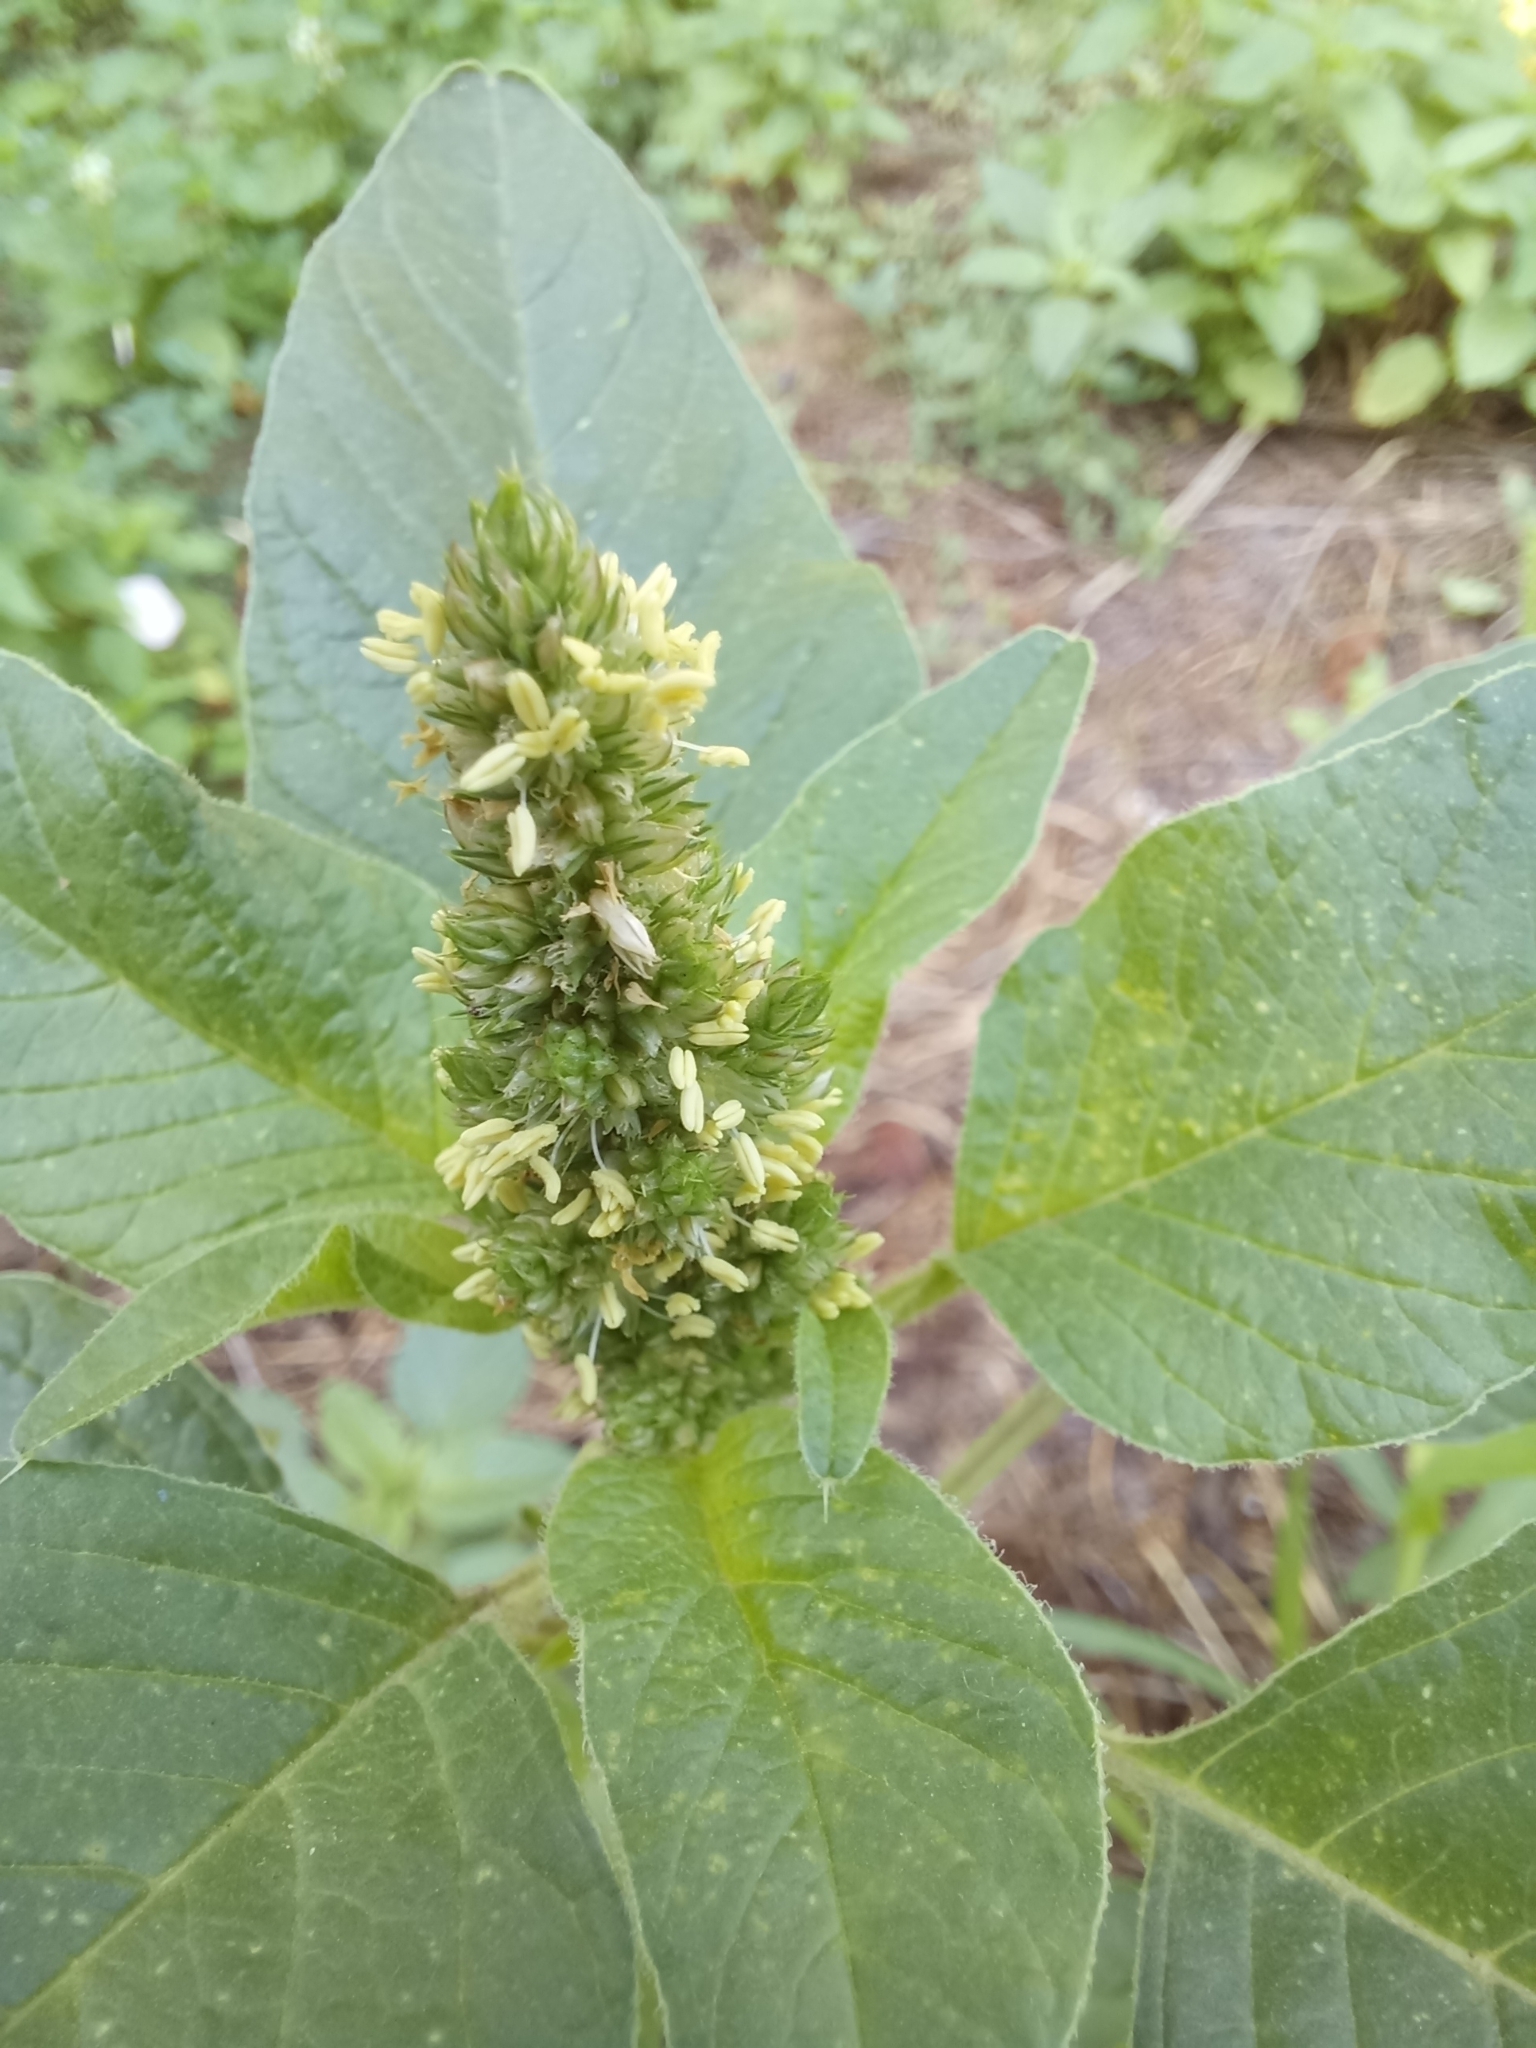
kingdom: Plantae
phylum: Tracheophyta
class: Magnoliopsida
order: Caryophyllales
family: Amaranthaceae
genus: Amaranthus
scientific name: Amaranthus retroflexus
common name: Redroot amaranth
